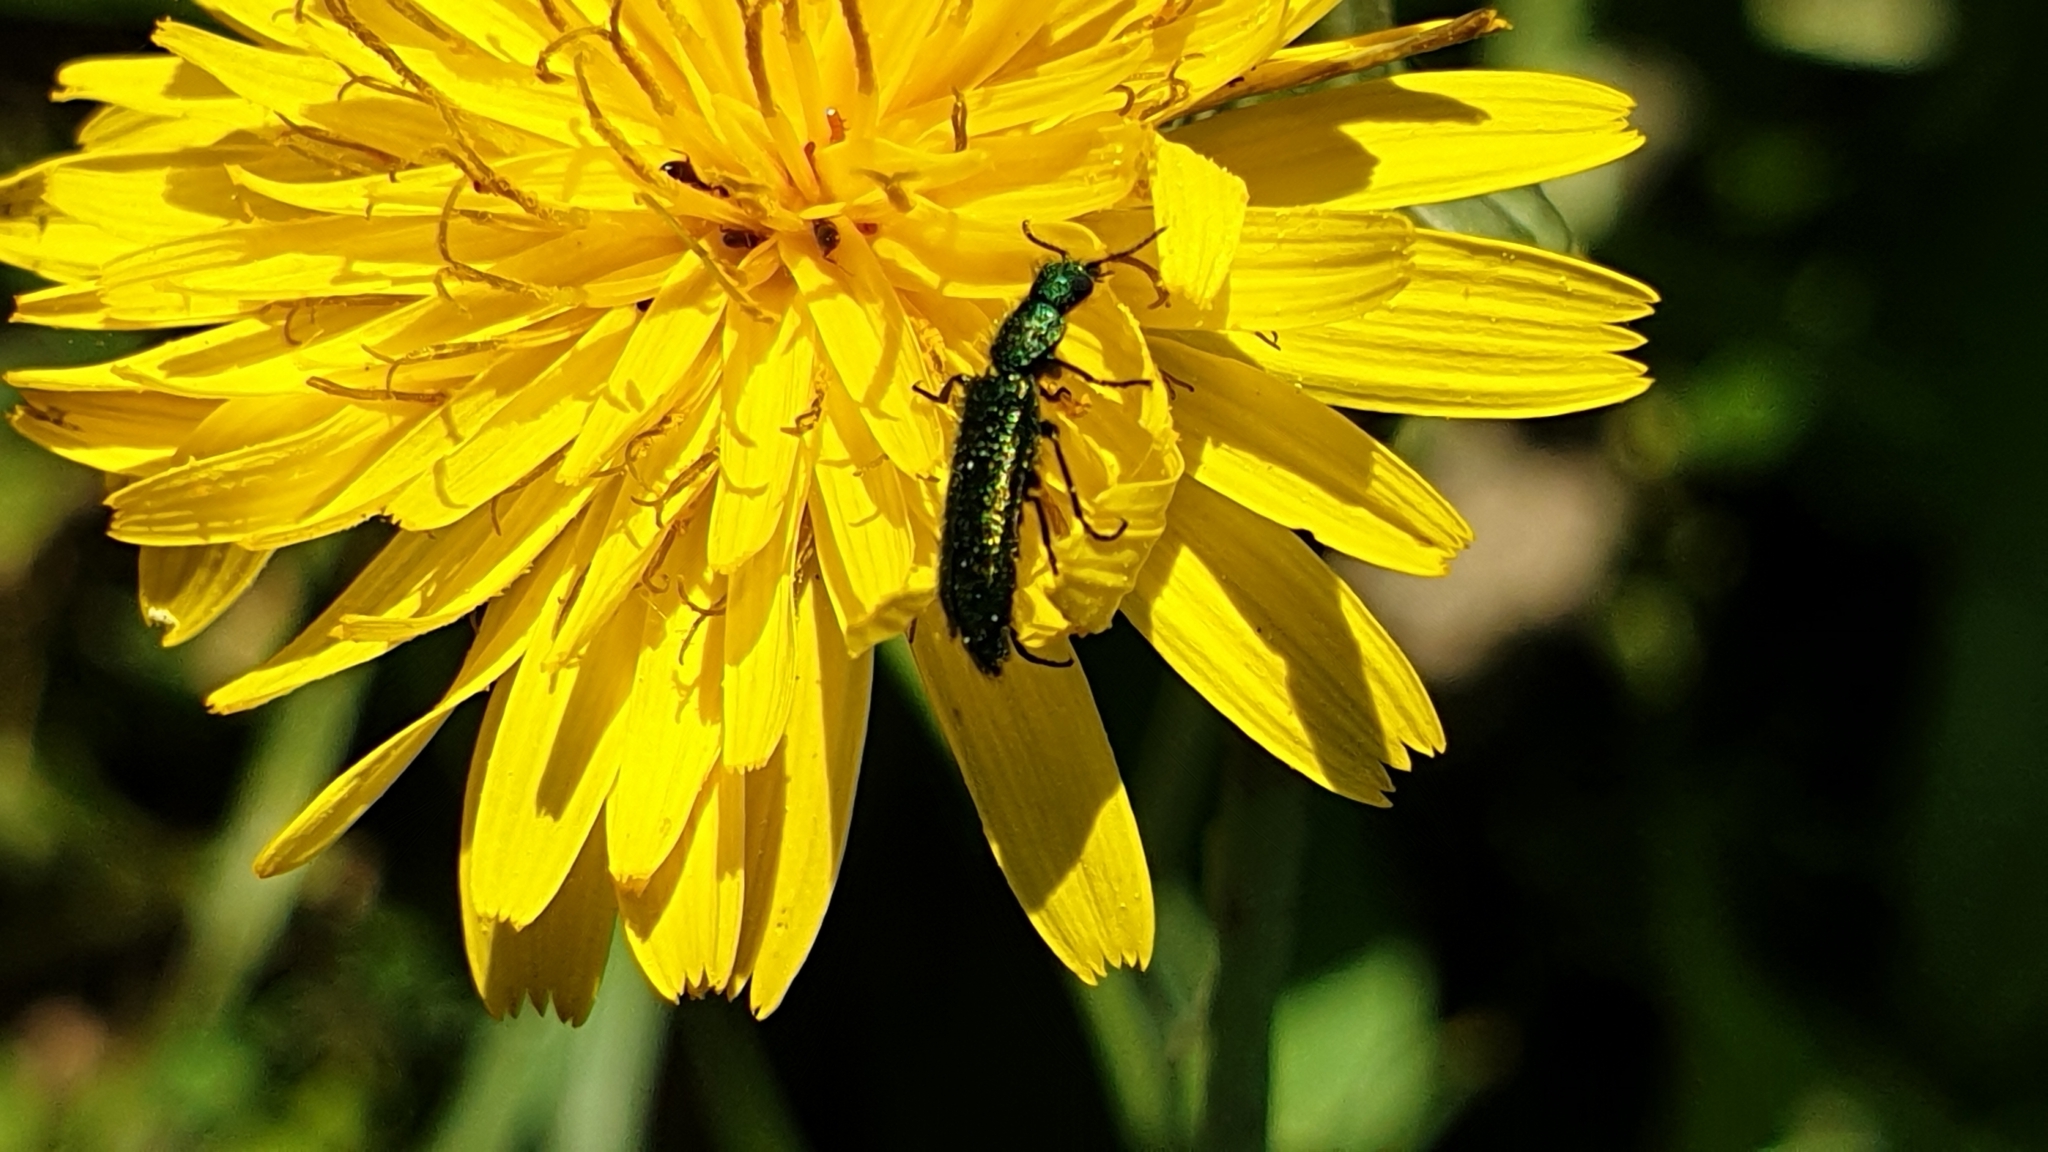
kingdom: Animalia
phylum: Arthropoda
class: Insecta
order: Coleoptera
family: Dasytidae
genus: Psilothrix
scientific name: Psilothrix viridicoerulea
